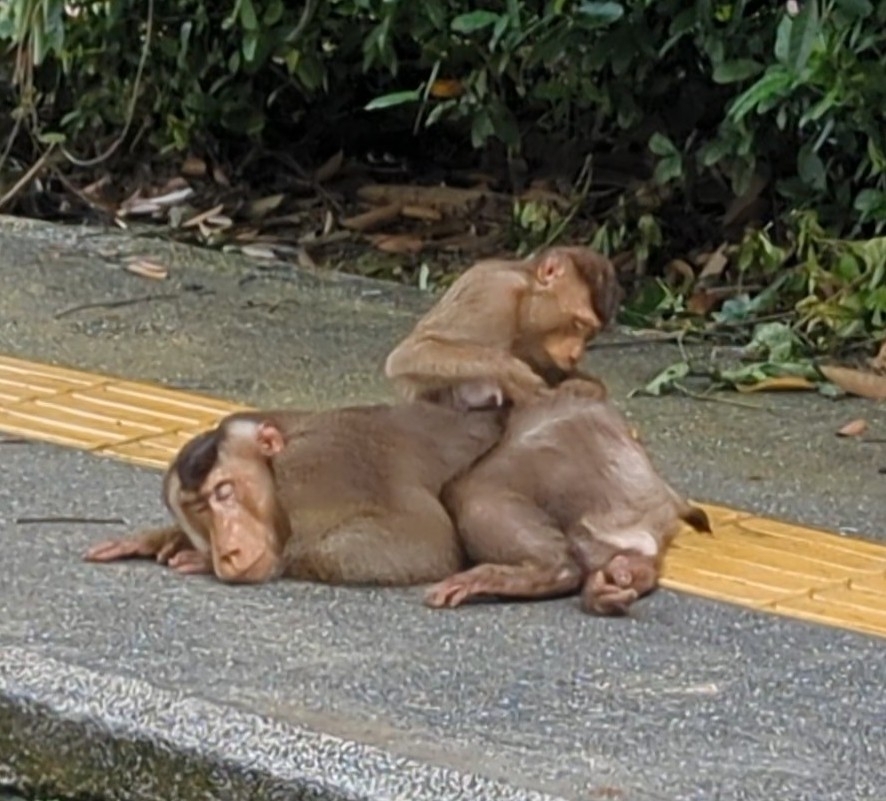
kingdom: Animalia
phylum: Chordata
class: Mammalia
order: Primates
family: Cercopithecidae
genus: Macaca
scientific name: Macaca nemestrina
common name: Southern pig-tailed macaque
